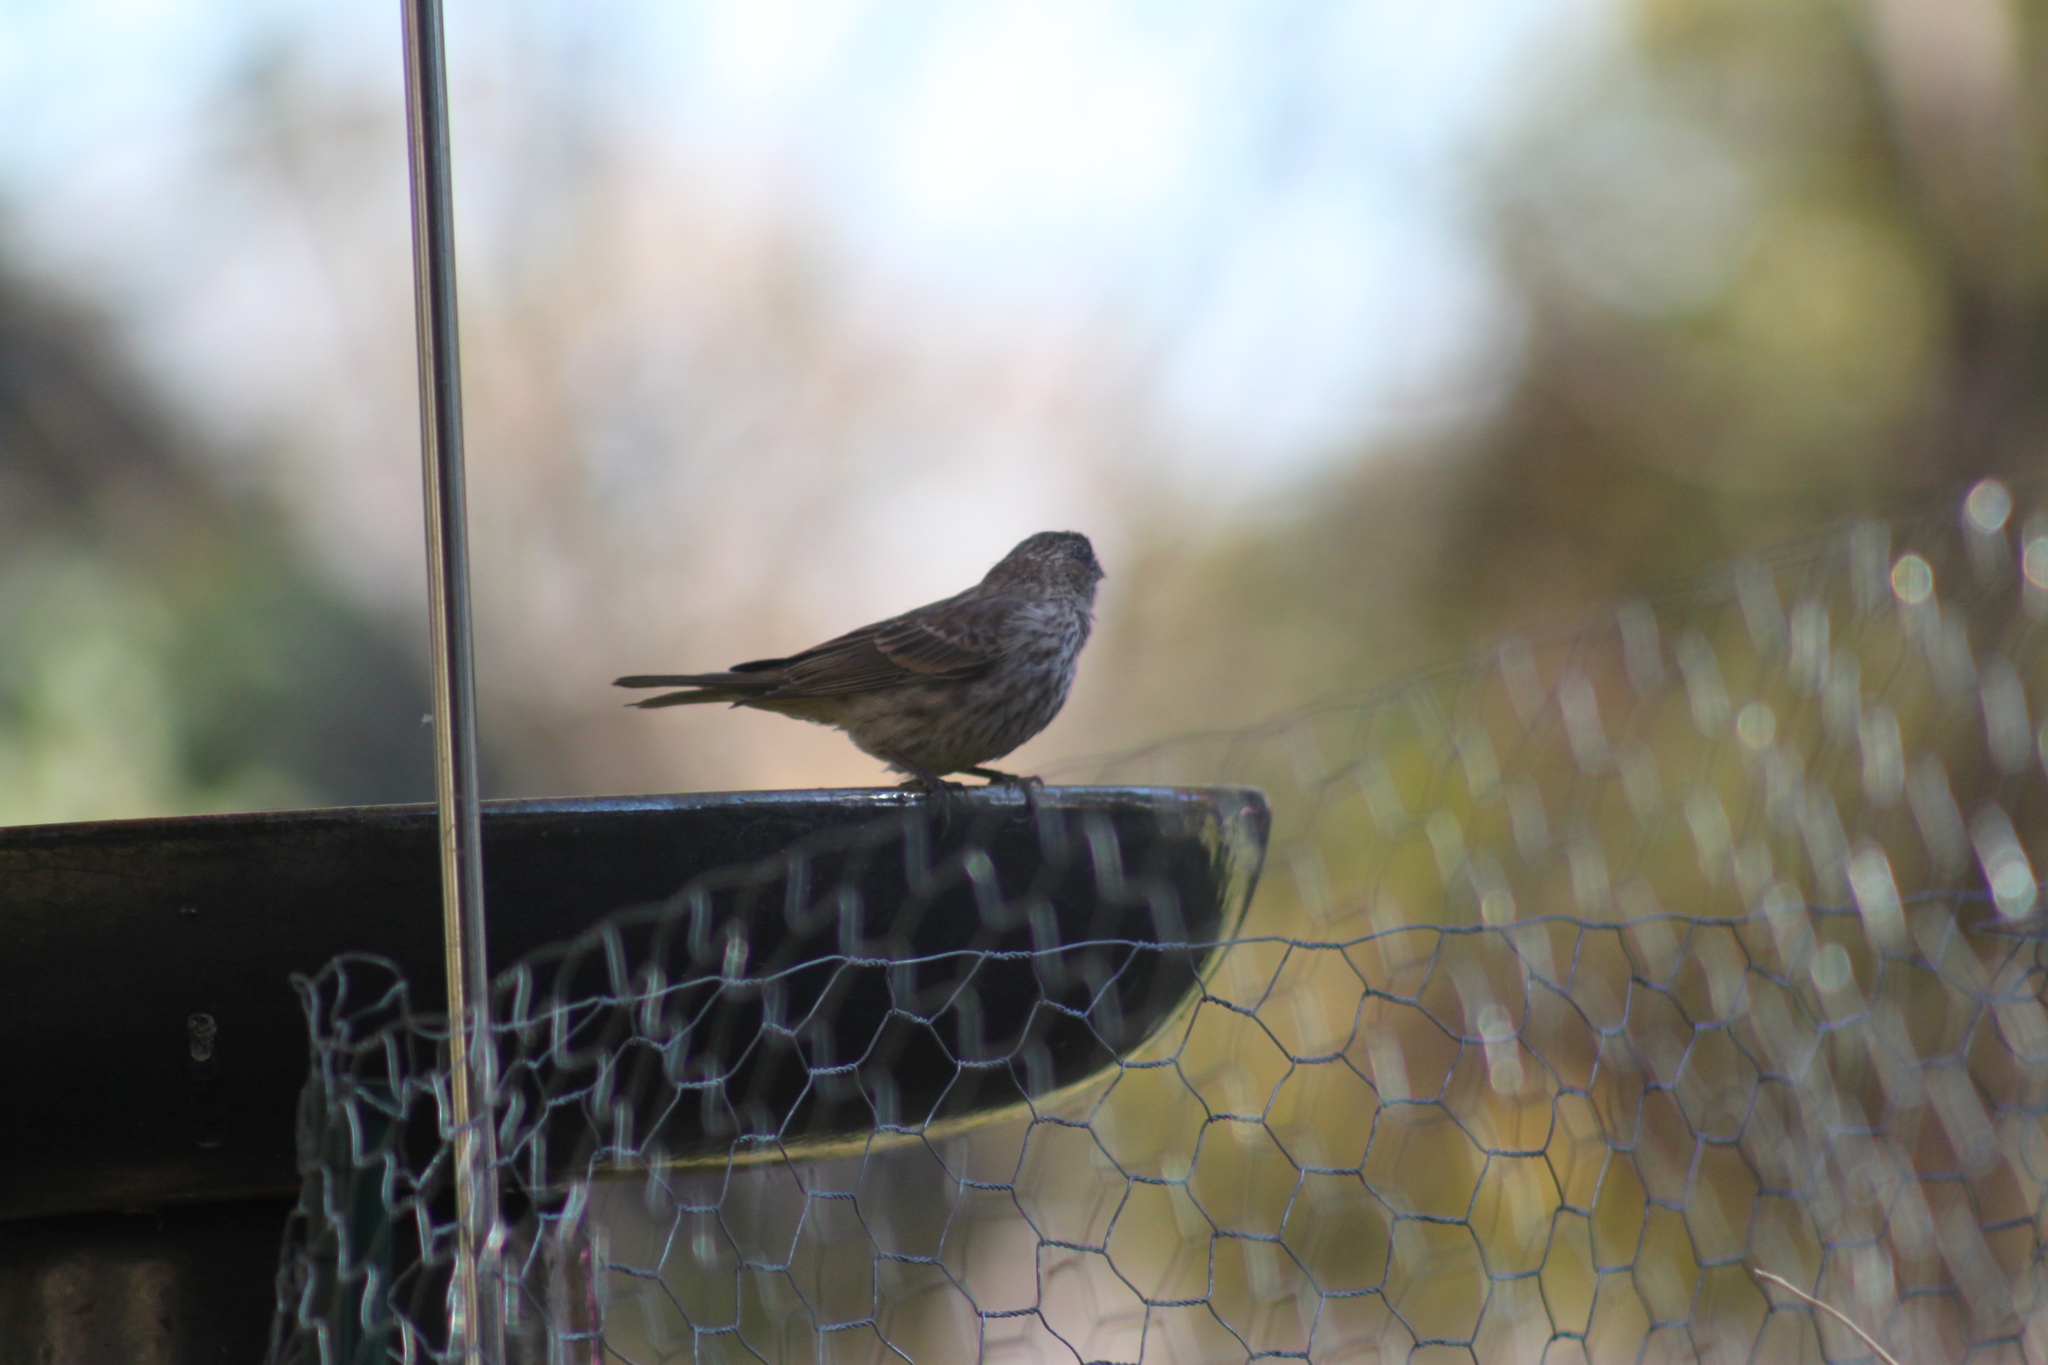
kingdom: Animalia
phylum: Chordata
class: Aves
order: Passeriformes
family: Fringillidae
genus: Haemorhous
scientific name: Haemorhous mexicanus
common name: House finch
